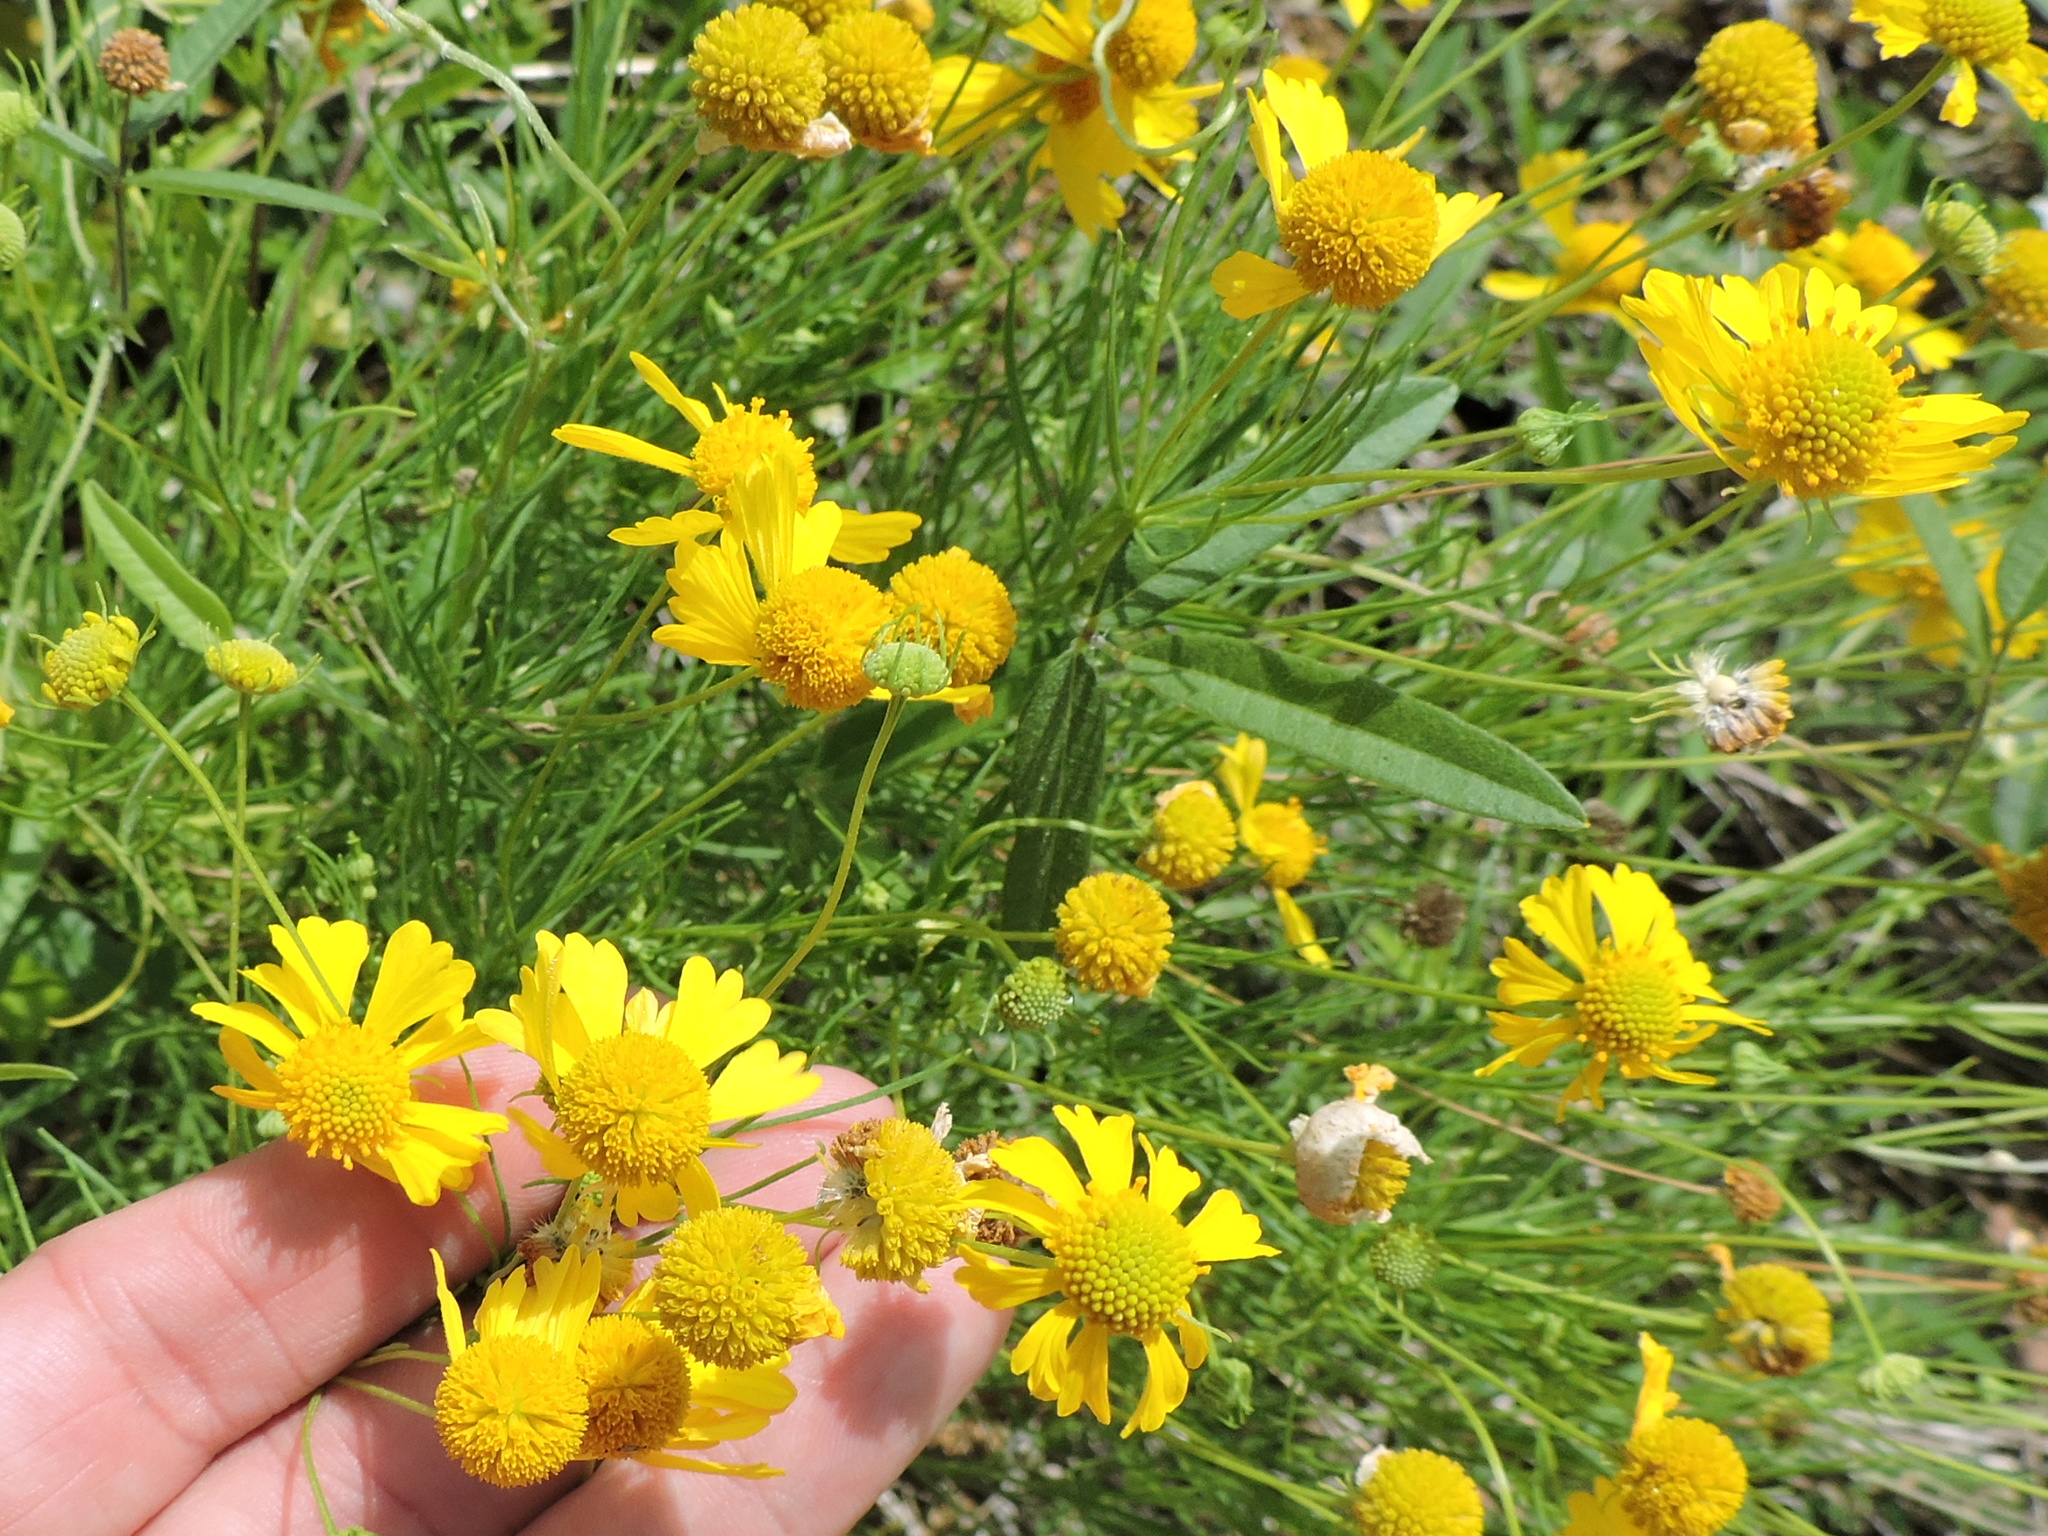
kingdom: Plantae
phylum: Tracheophyta
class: Magnoliopsida
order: Asterales
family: Asteraceae
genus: Helenium
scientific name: Helenium amarum
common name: Bitter sneezeweed
